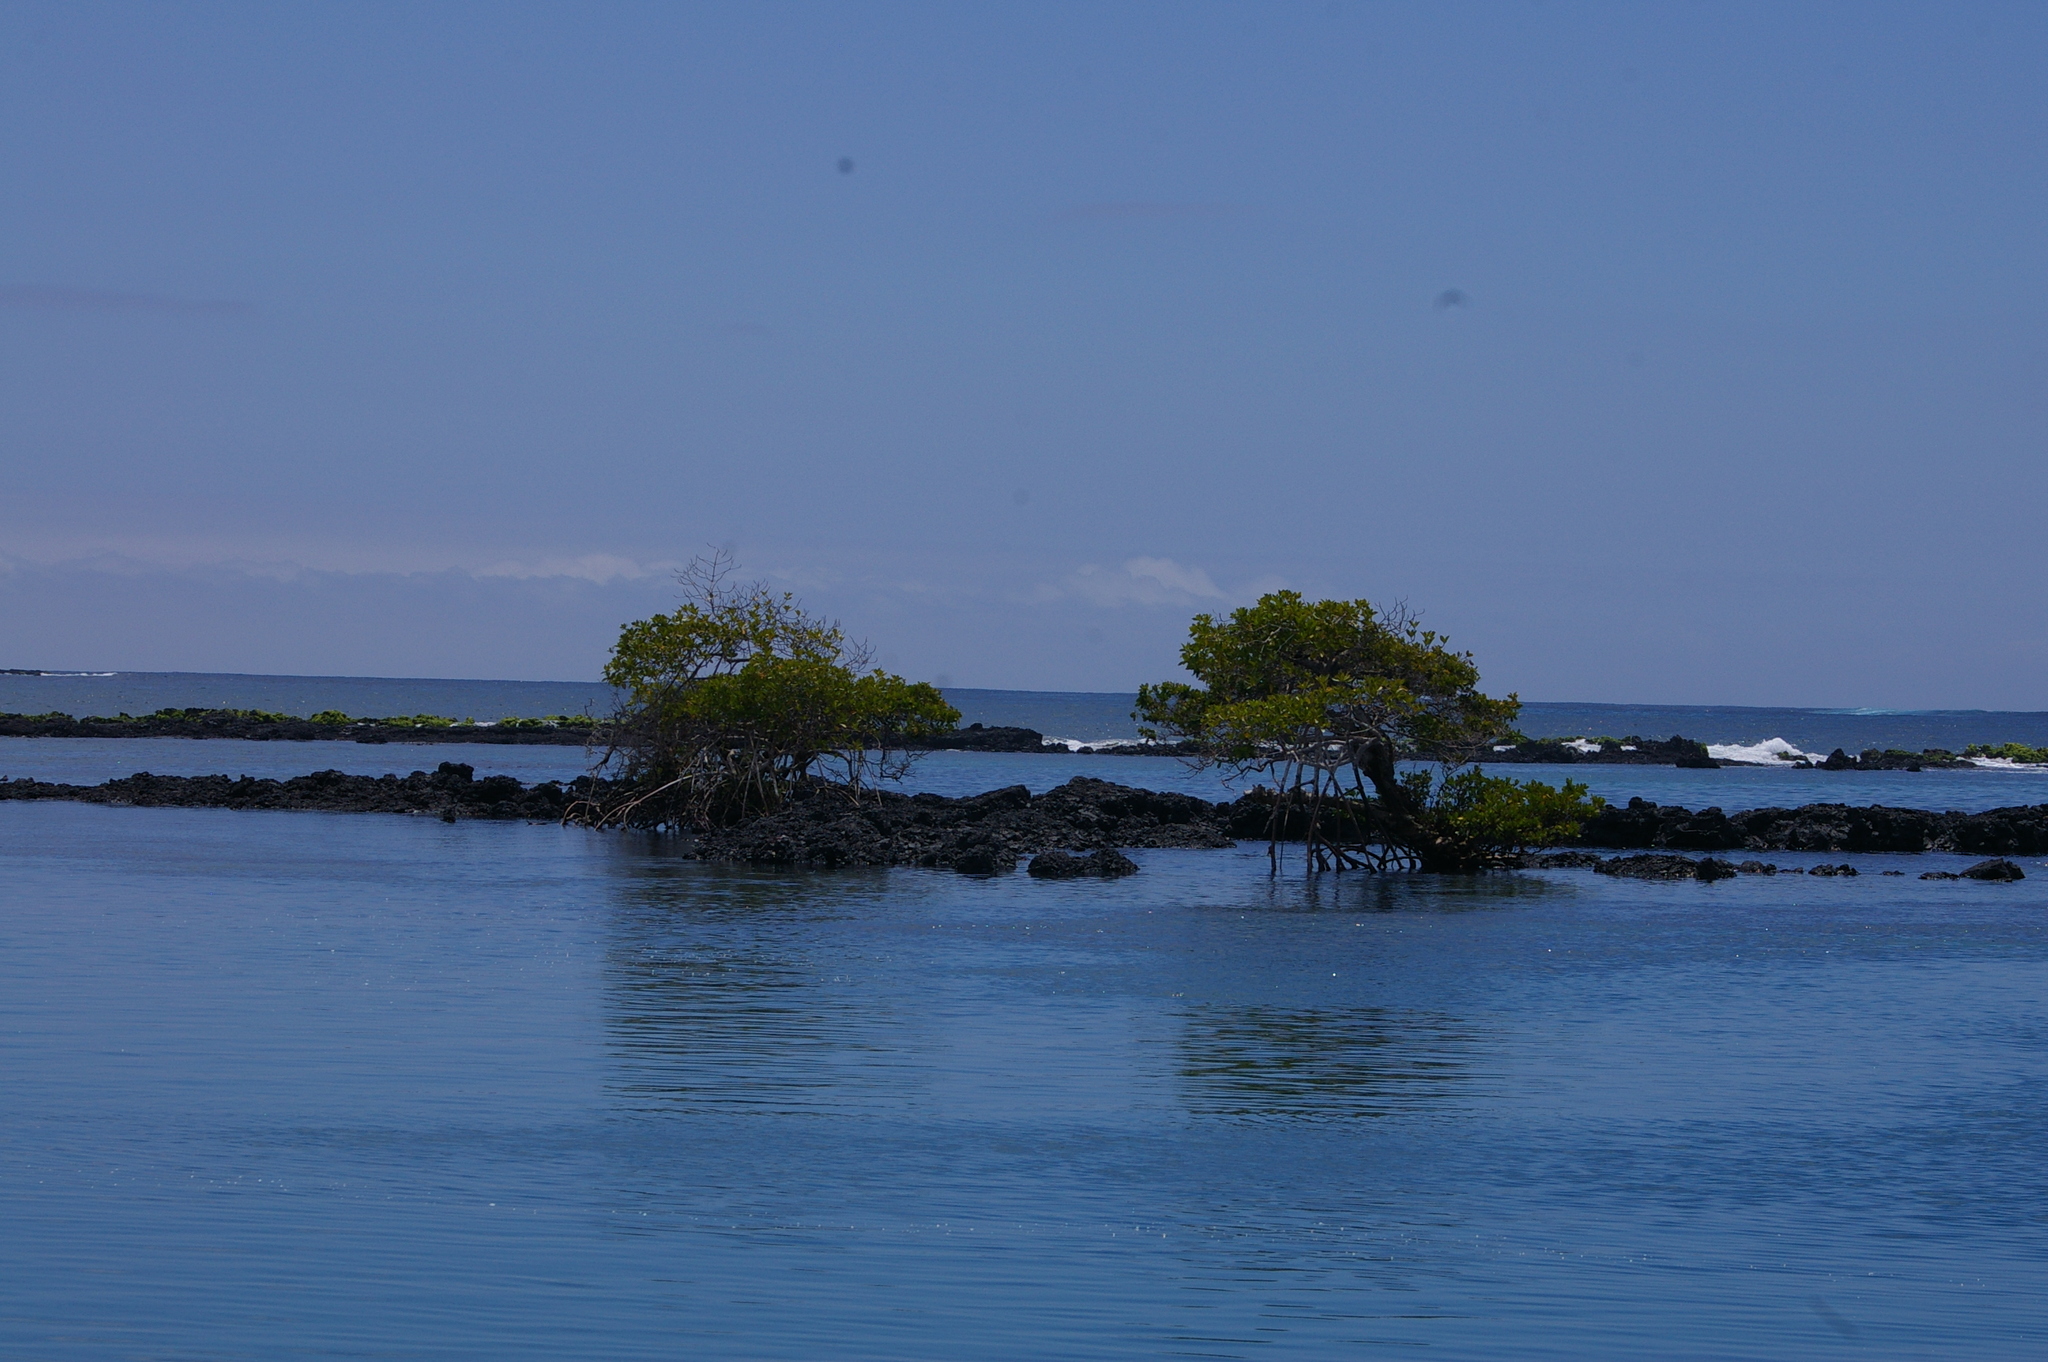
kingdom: Plantae
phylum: Tracheophyta
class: Magnoliopsida
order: Malpighiales
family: Rhizophoraceae
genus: Rhizophora
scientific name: Rhizophora mangle
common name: Red mangrove
